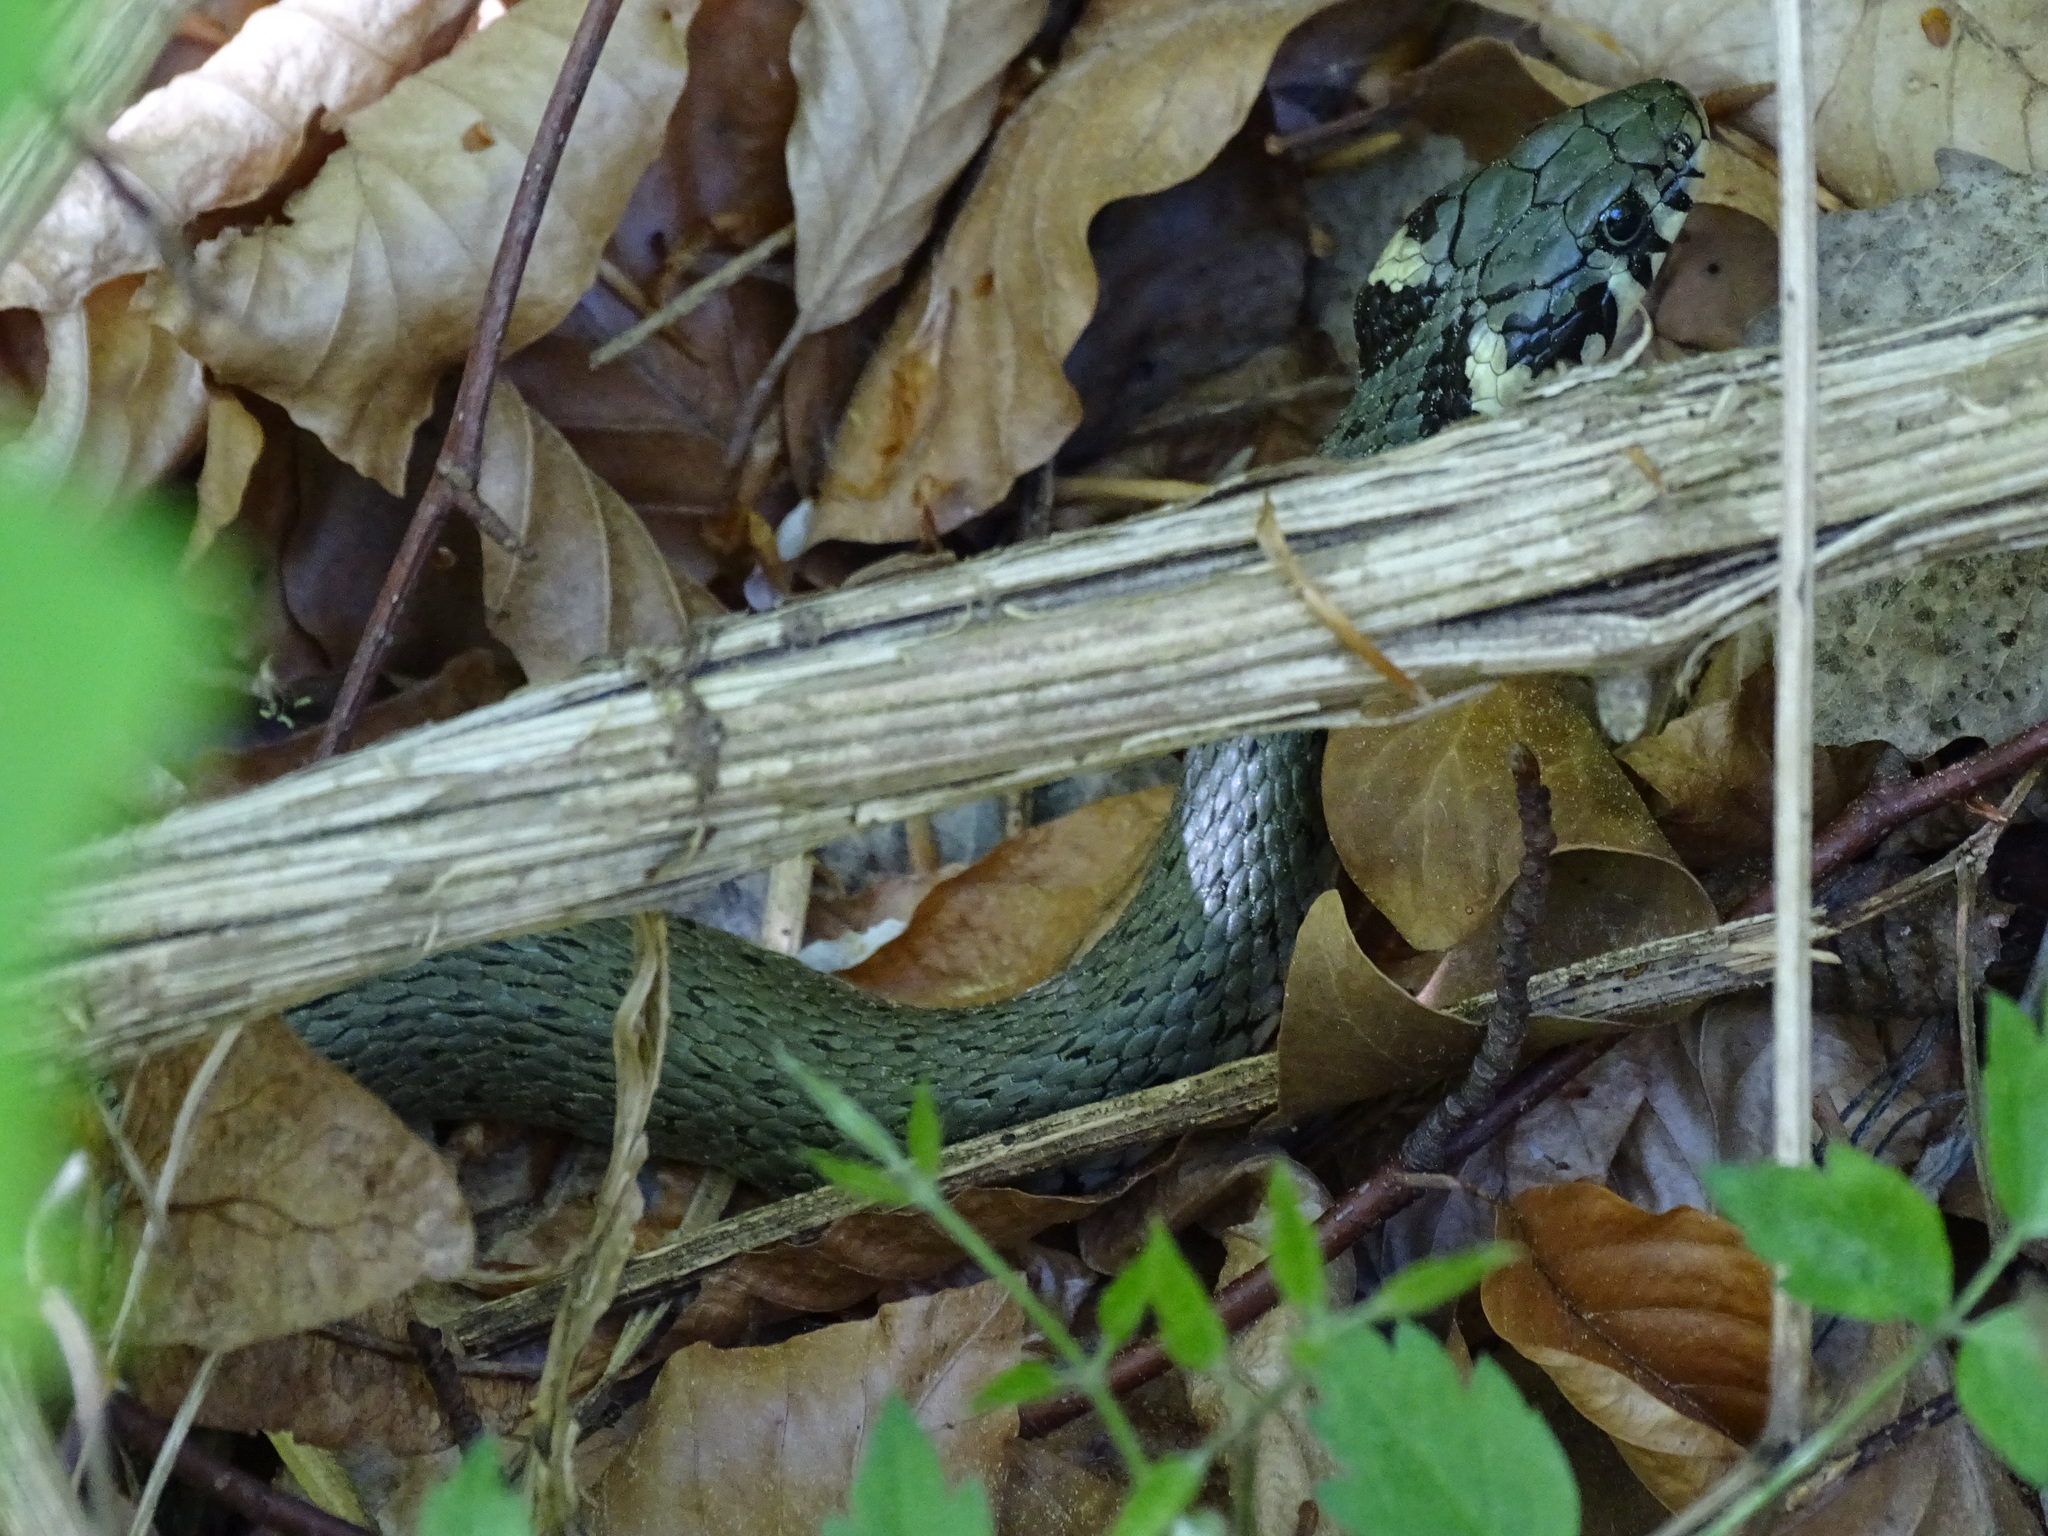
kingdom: Animalia
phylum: Chordata
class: Squamata
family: Colubridae
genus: Natrix
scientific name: Natrix natrix
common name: Grass snake
